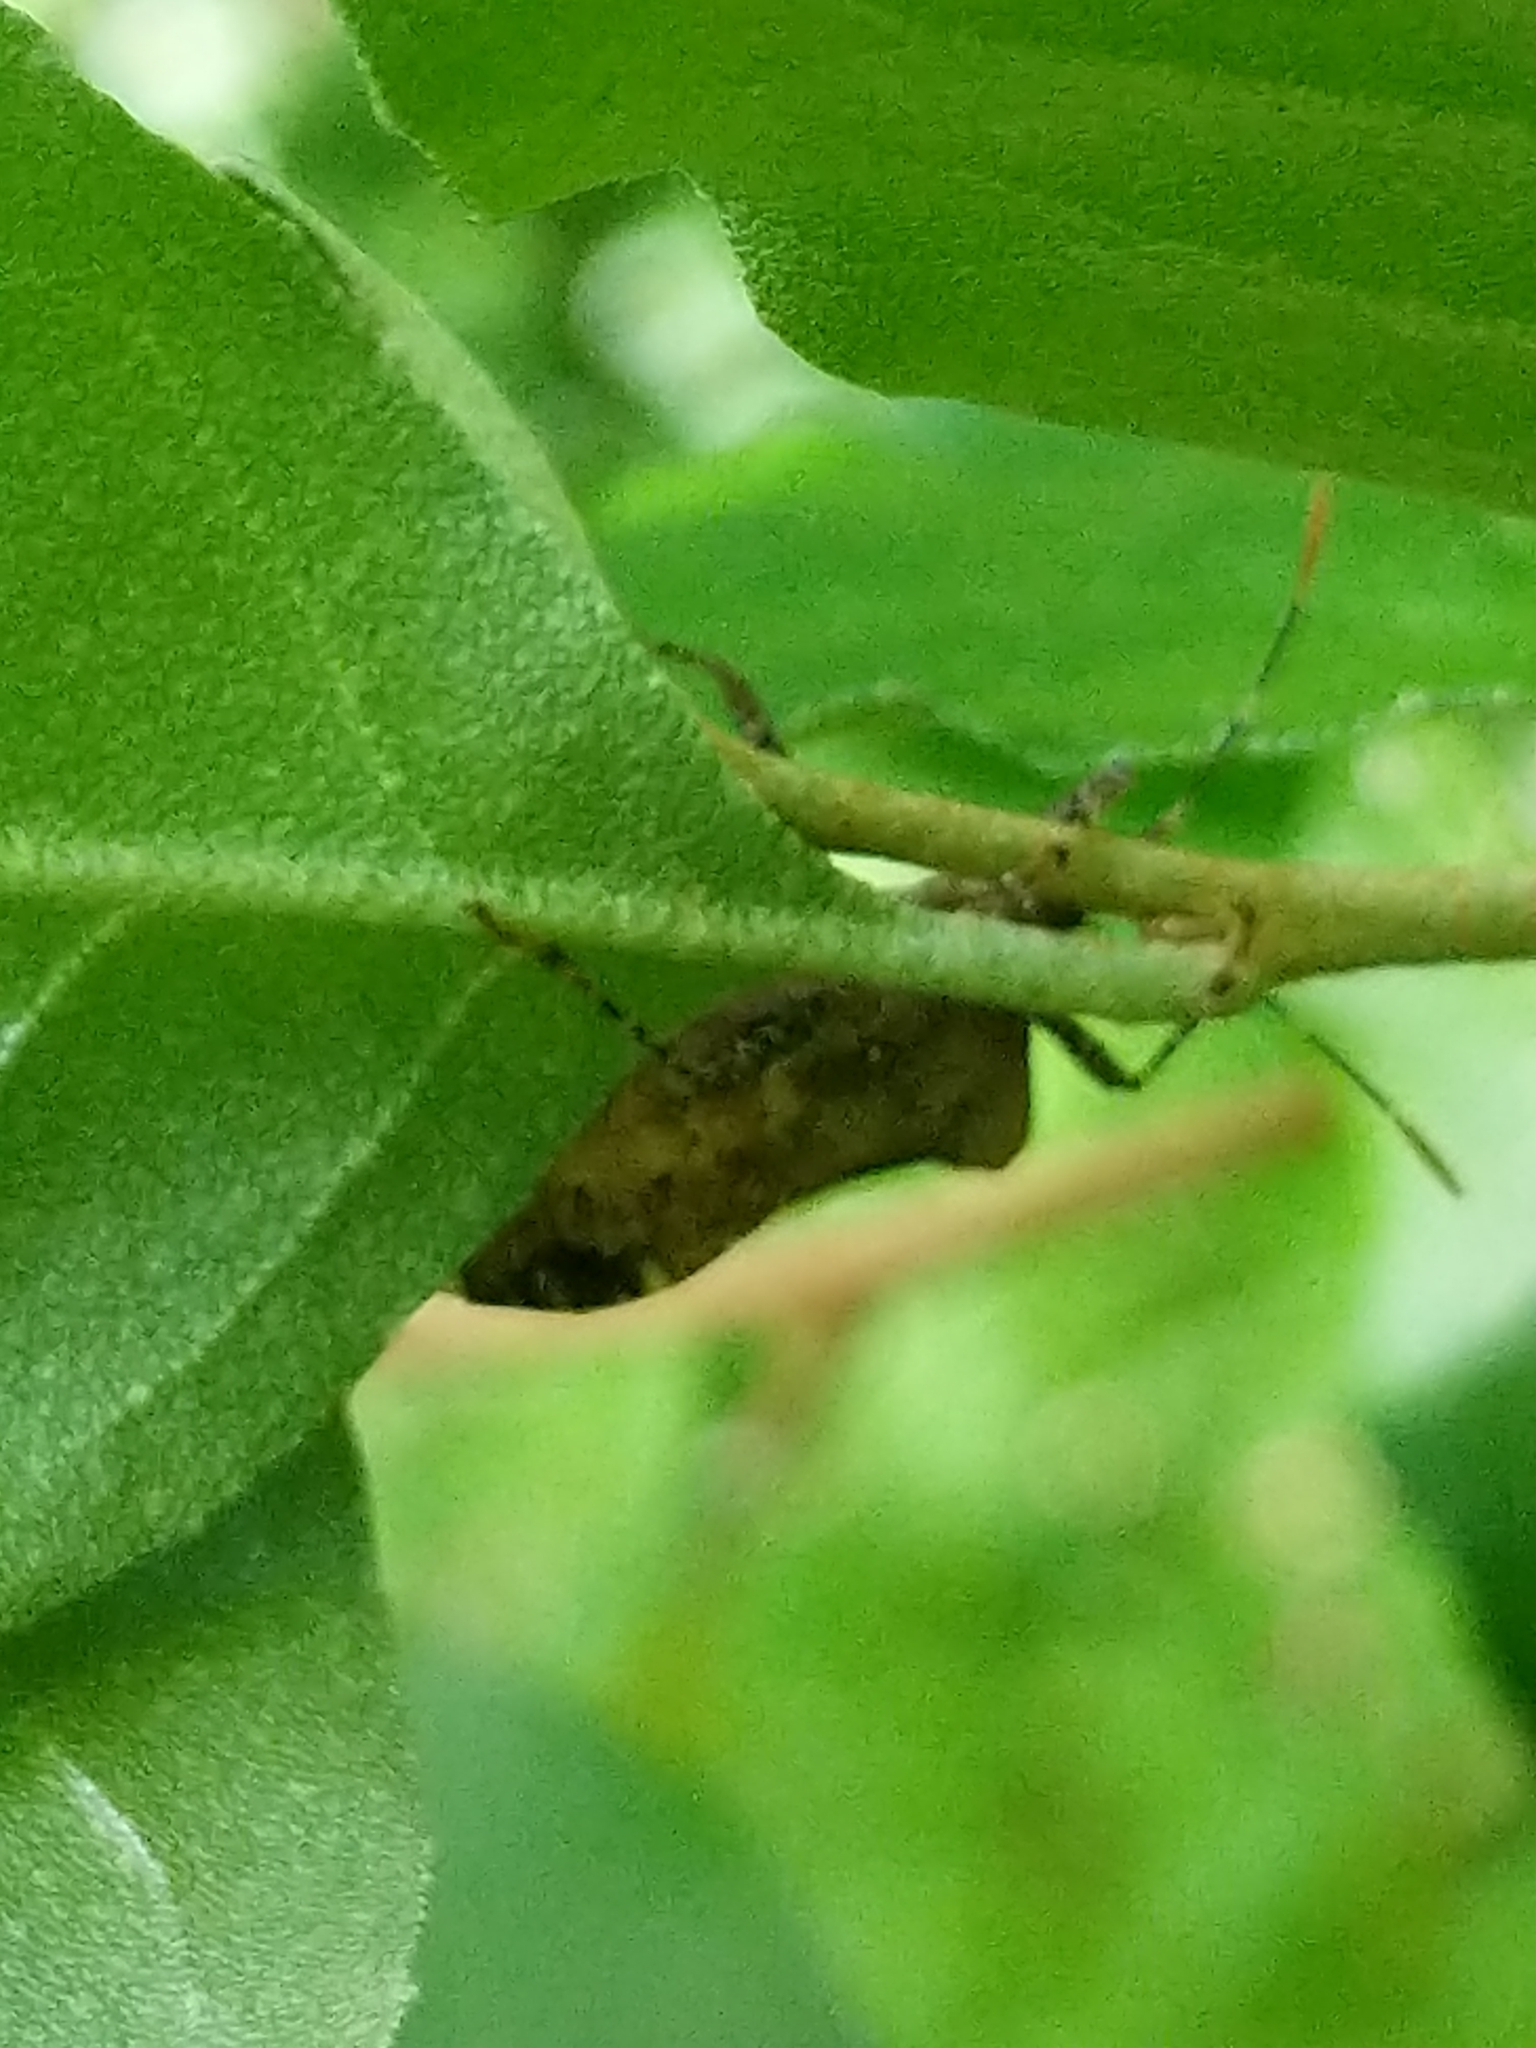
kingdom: Animalia
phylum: Arthropoda
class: Insecta
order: Hemiptera
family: Coreidae
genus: Anasa
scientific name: Anasa armigera
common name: Horned squash bug
